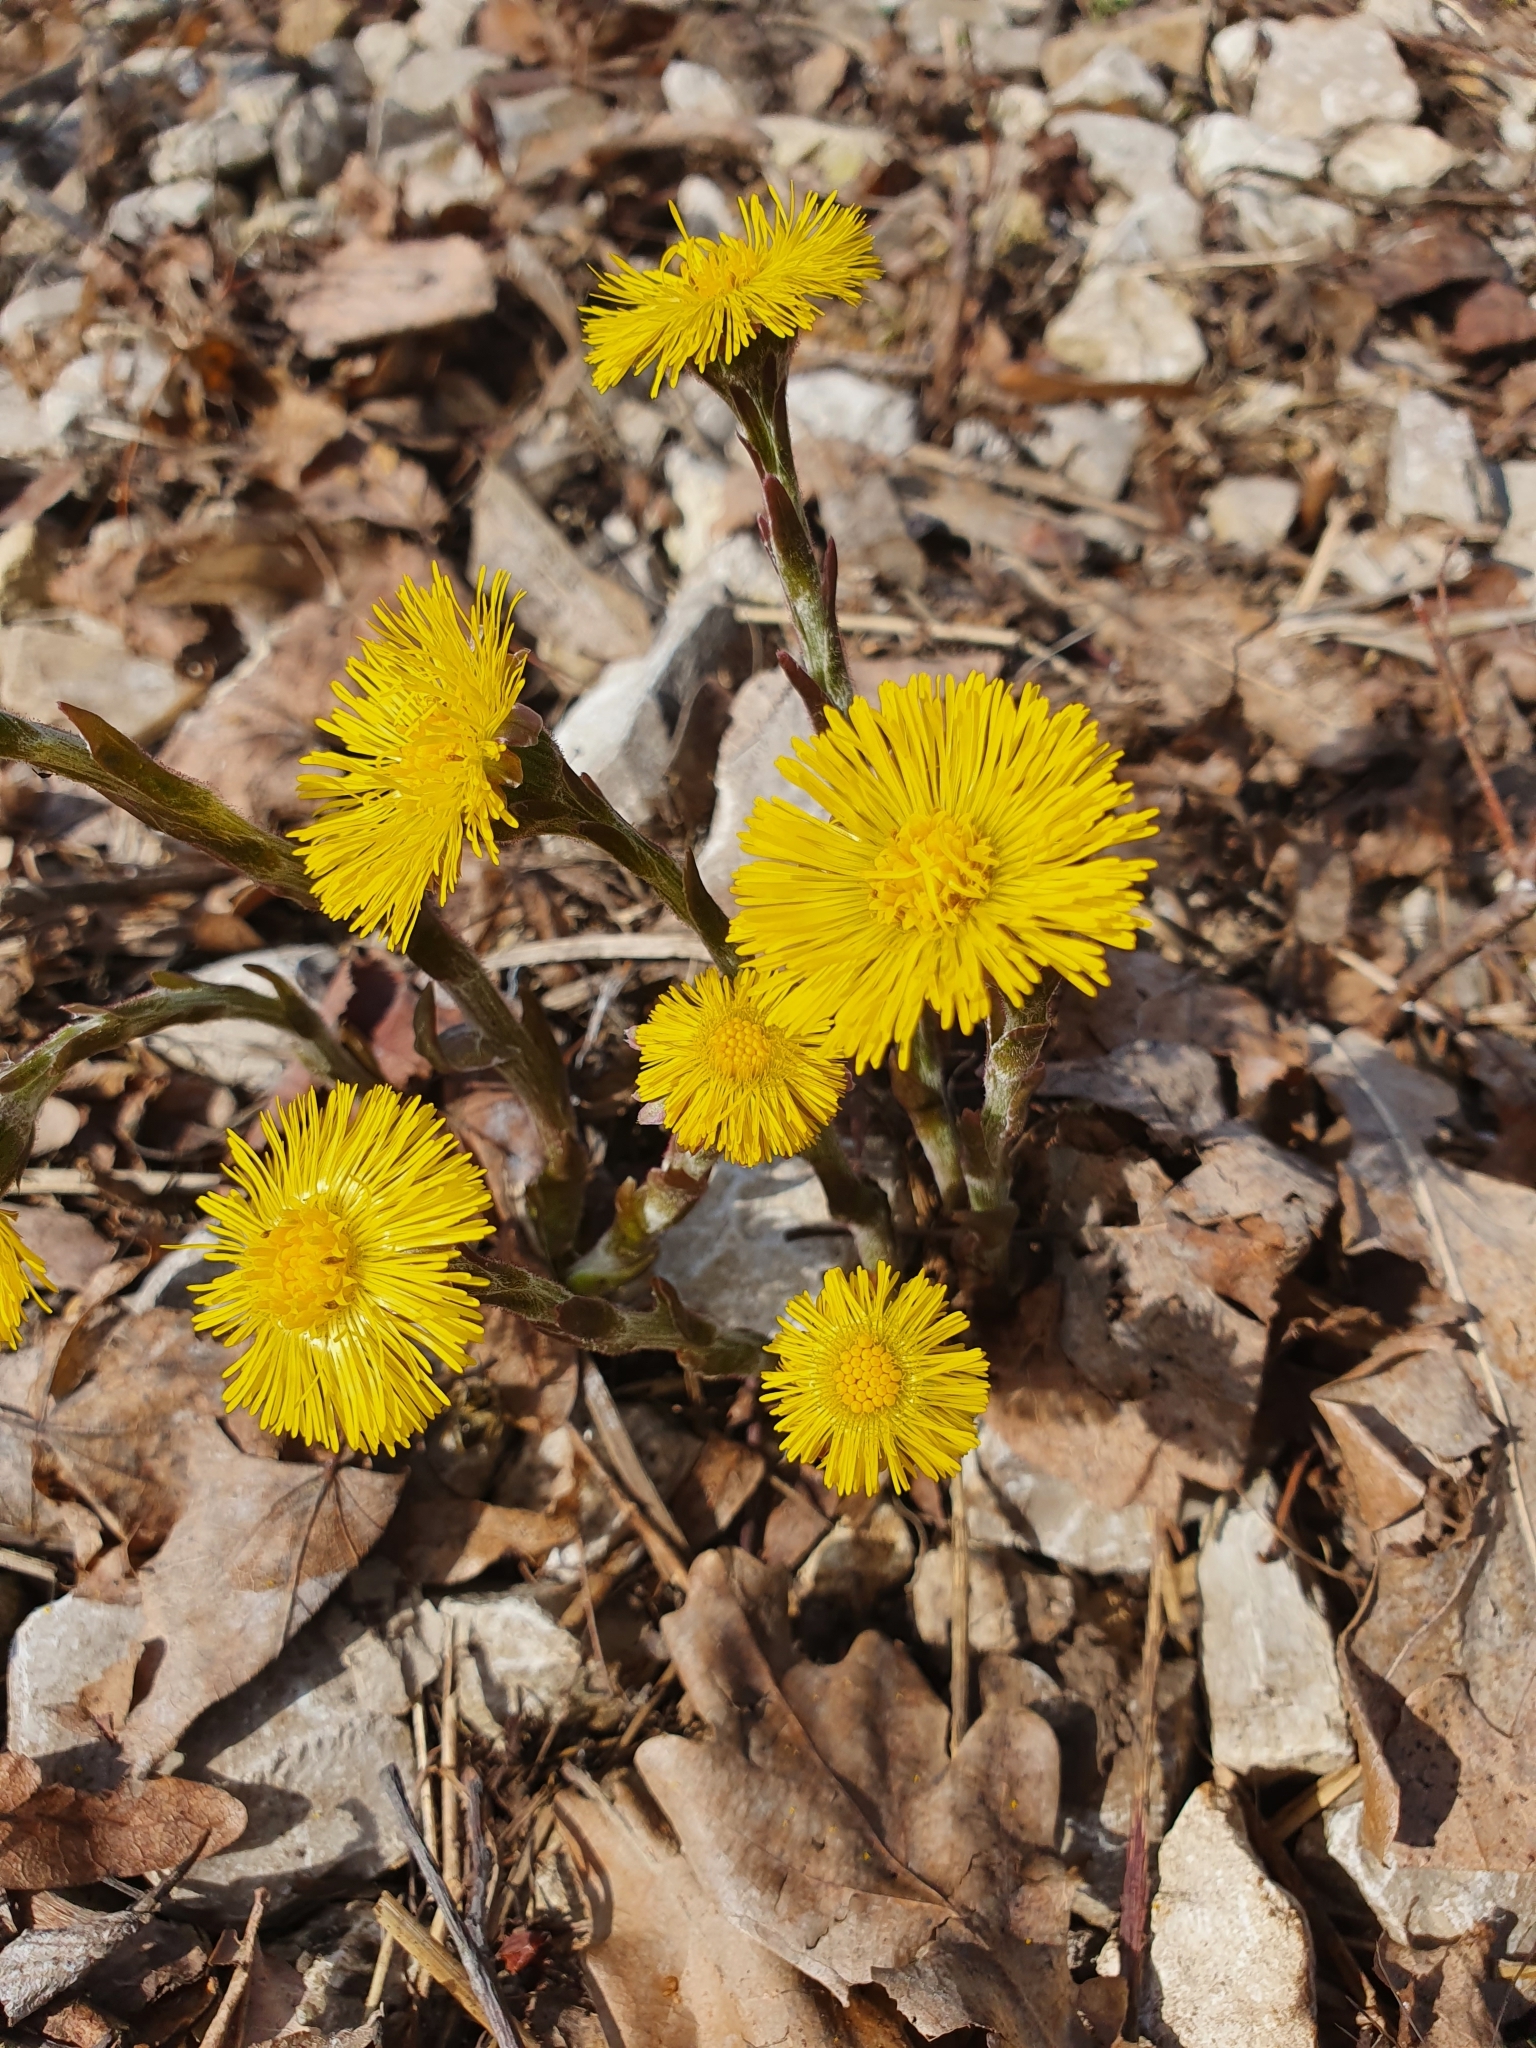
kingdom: Plantae
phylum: Tracheophyta
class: Magnoliopsida
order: Asterales
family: Asteraceae
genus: Tussilago
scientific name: Tussilago farfara
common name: Coltsfoot
